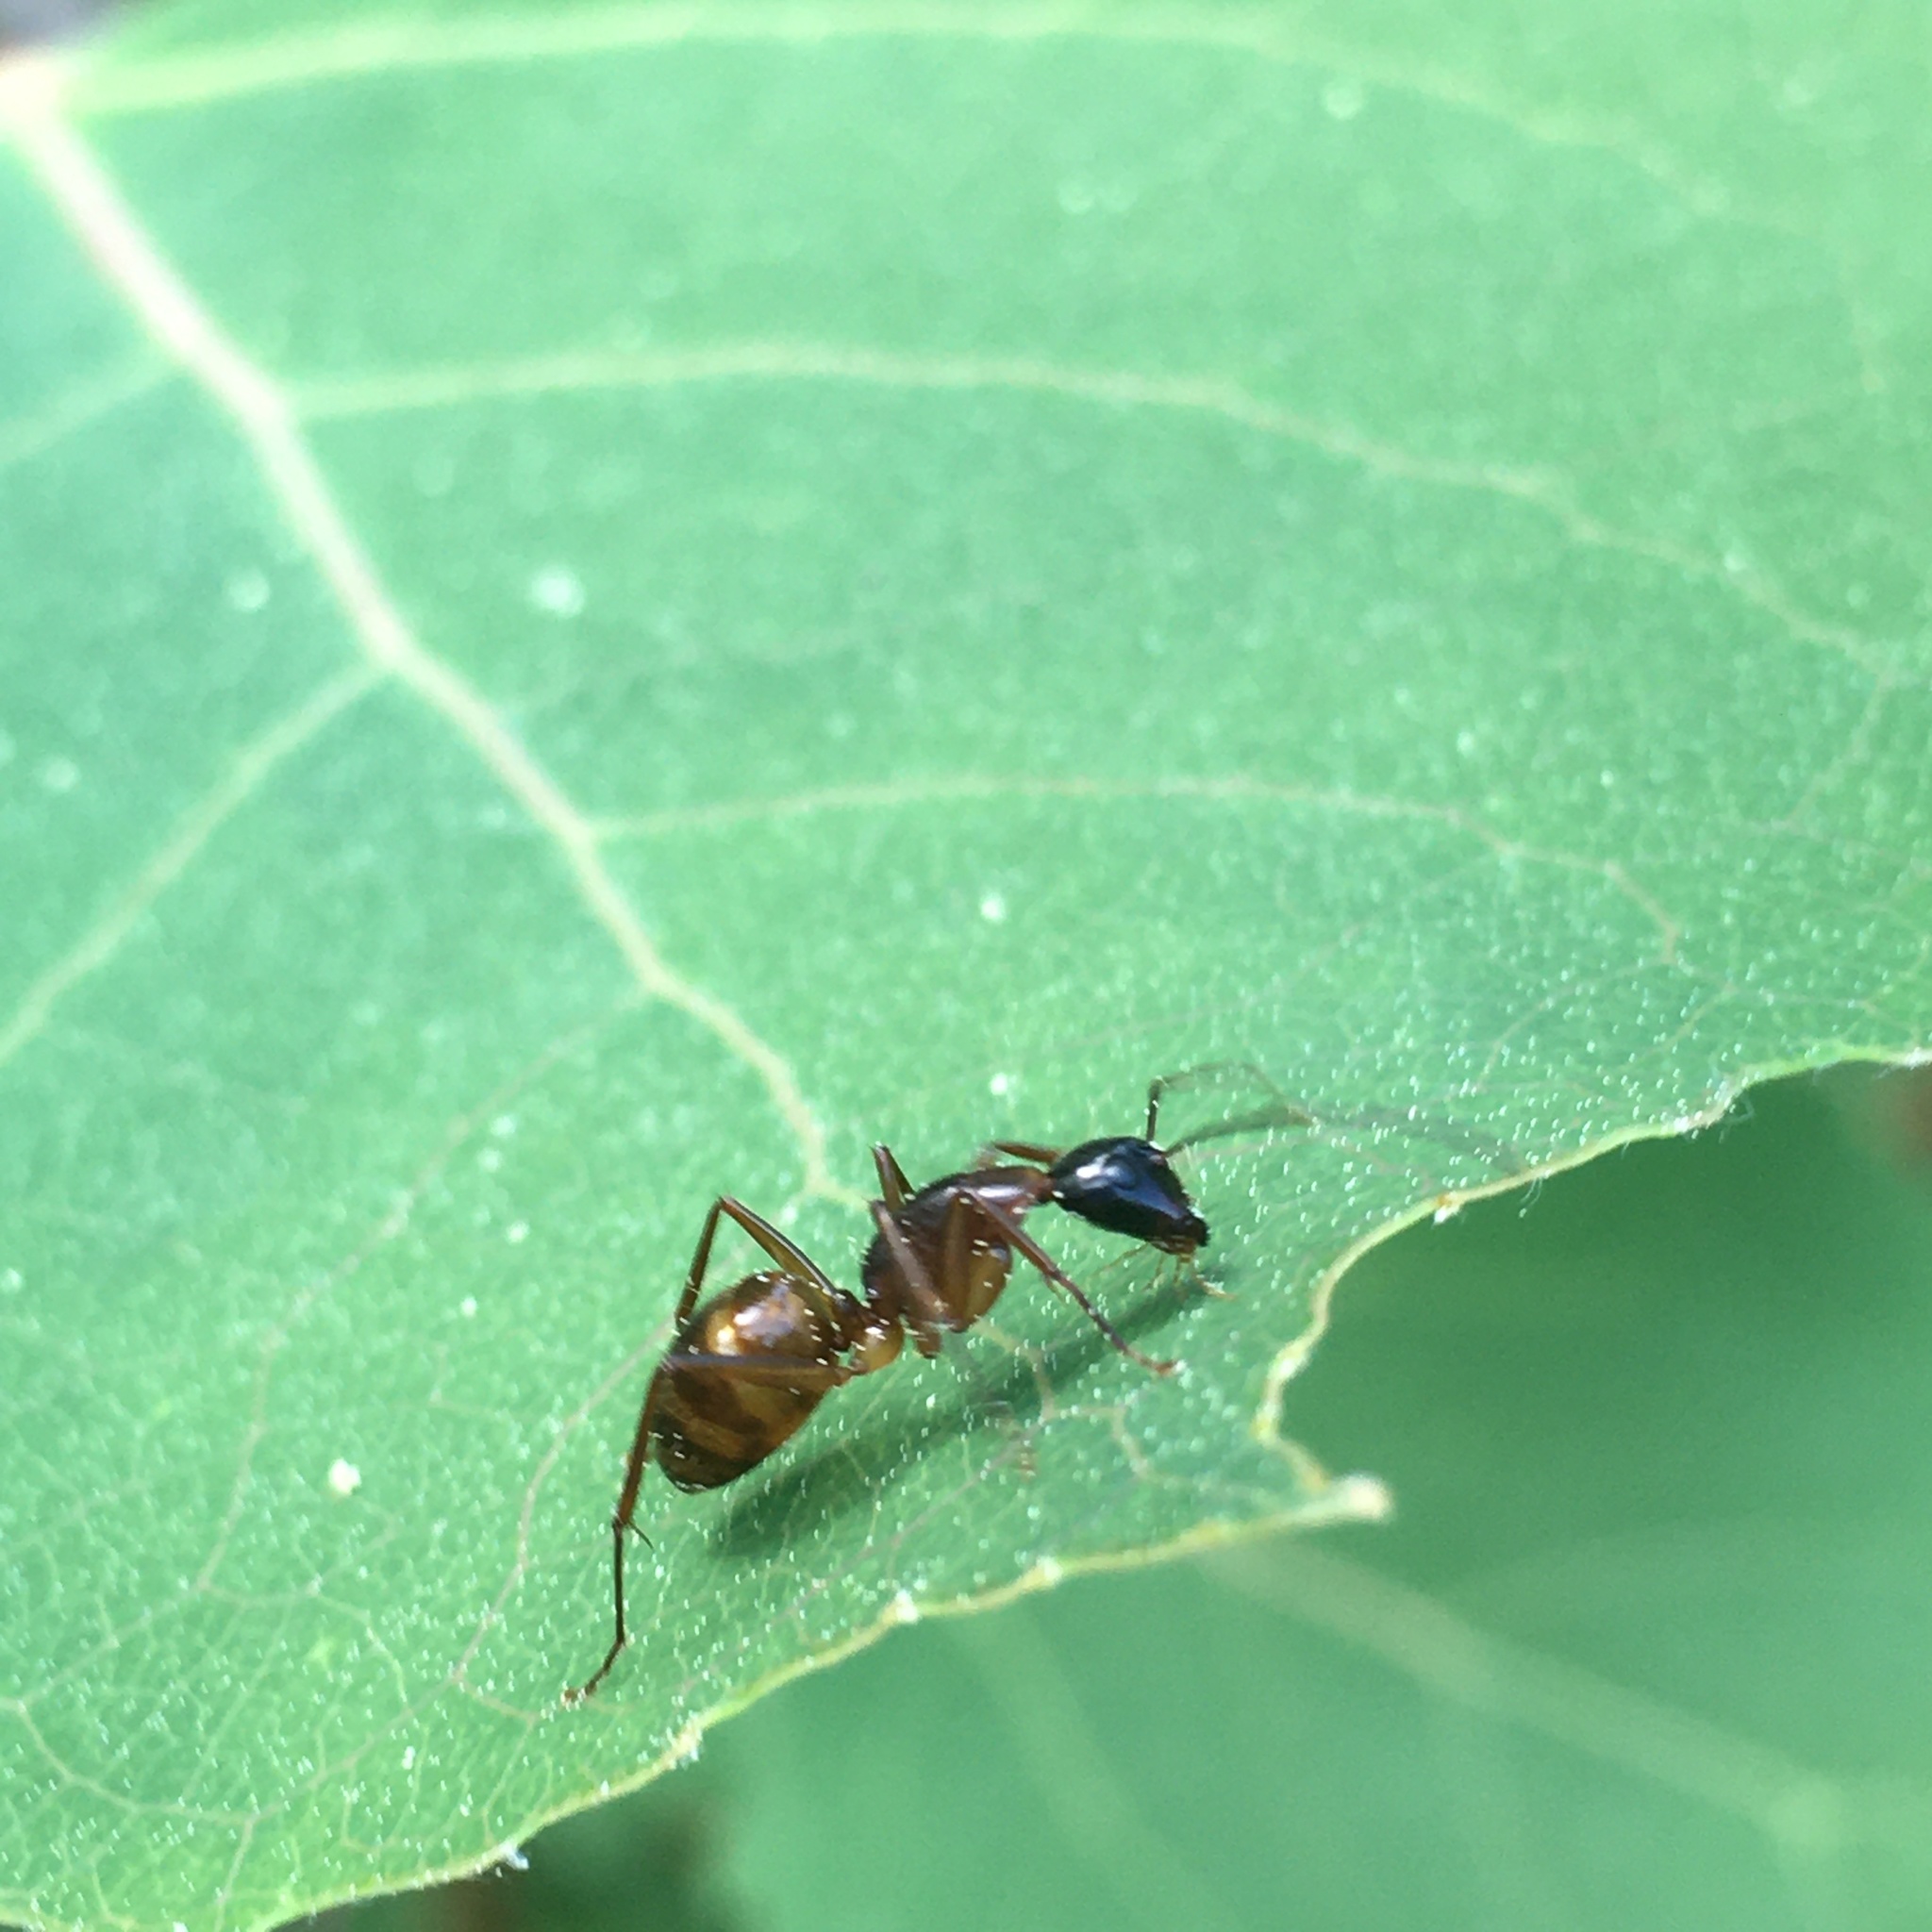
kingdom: Animalia
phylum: Arthropoda
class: Insecta
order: Hymenoptera
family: Formicidae
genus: Camponotus
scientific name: Camponotus americanus
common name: American carpenter ant
